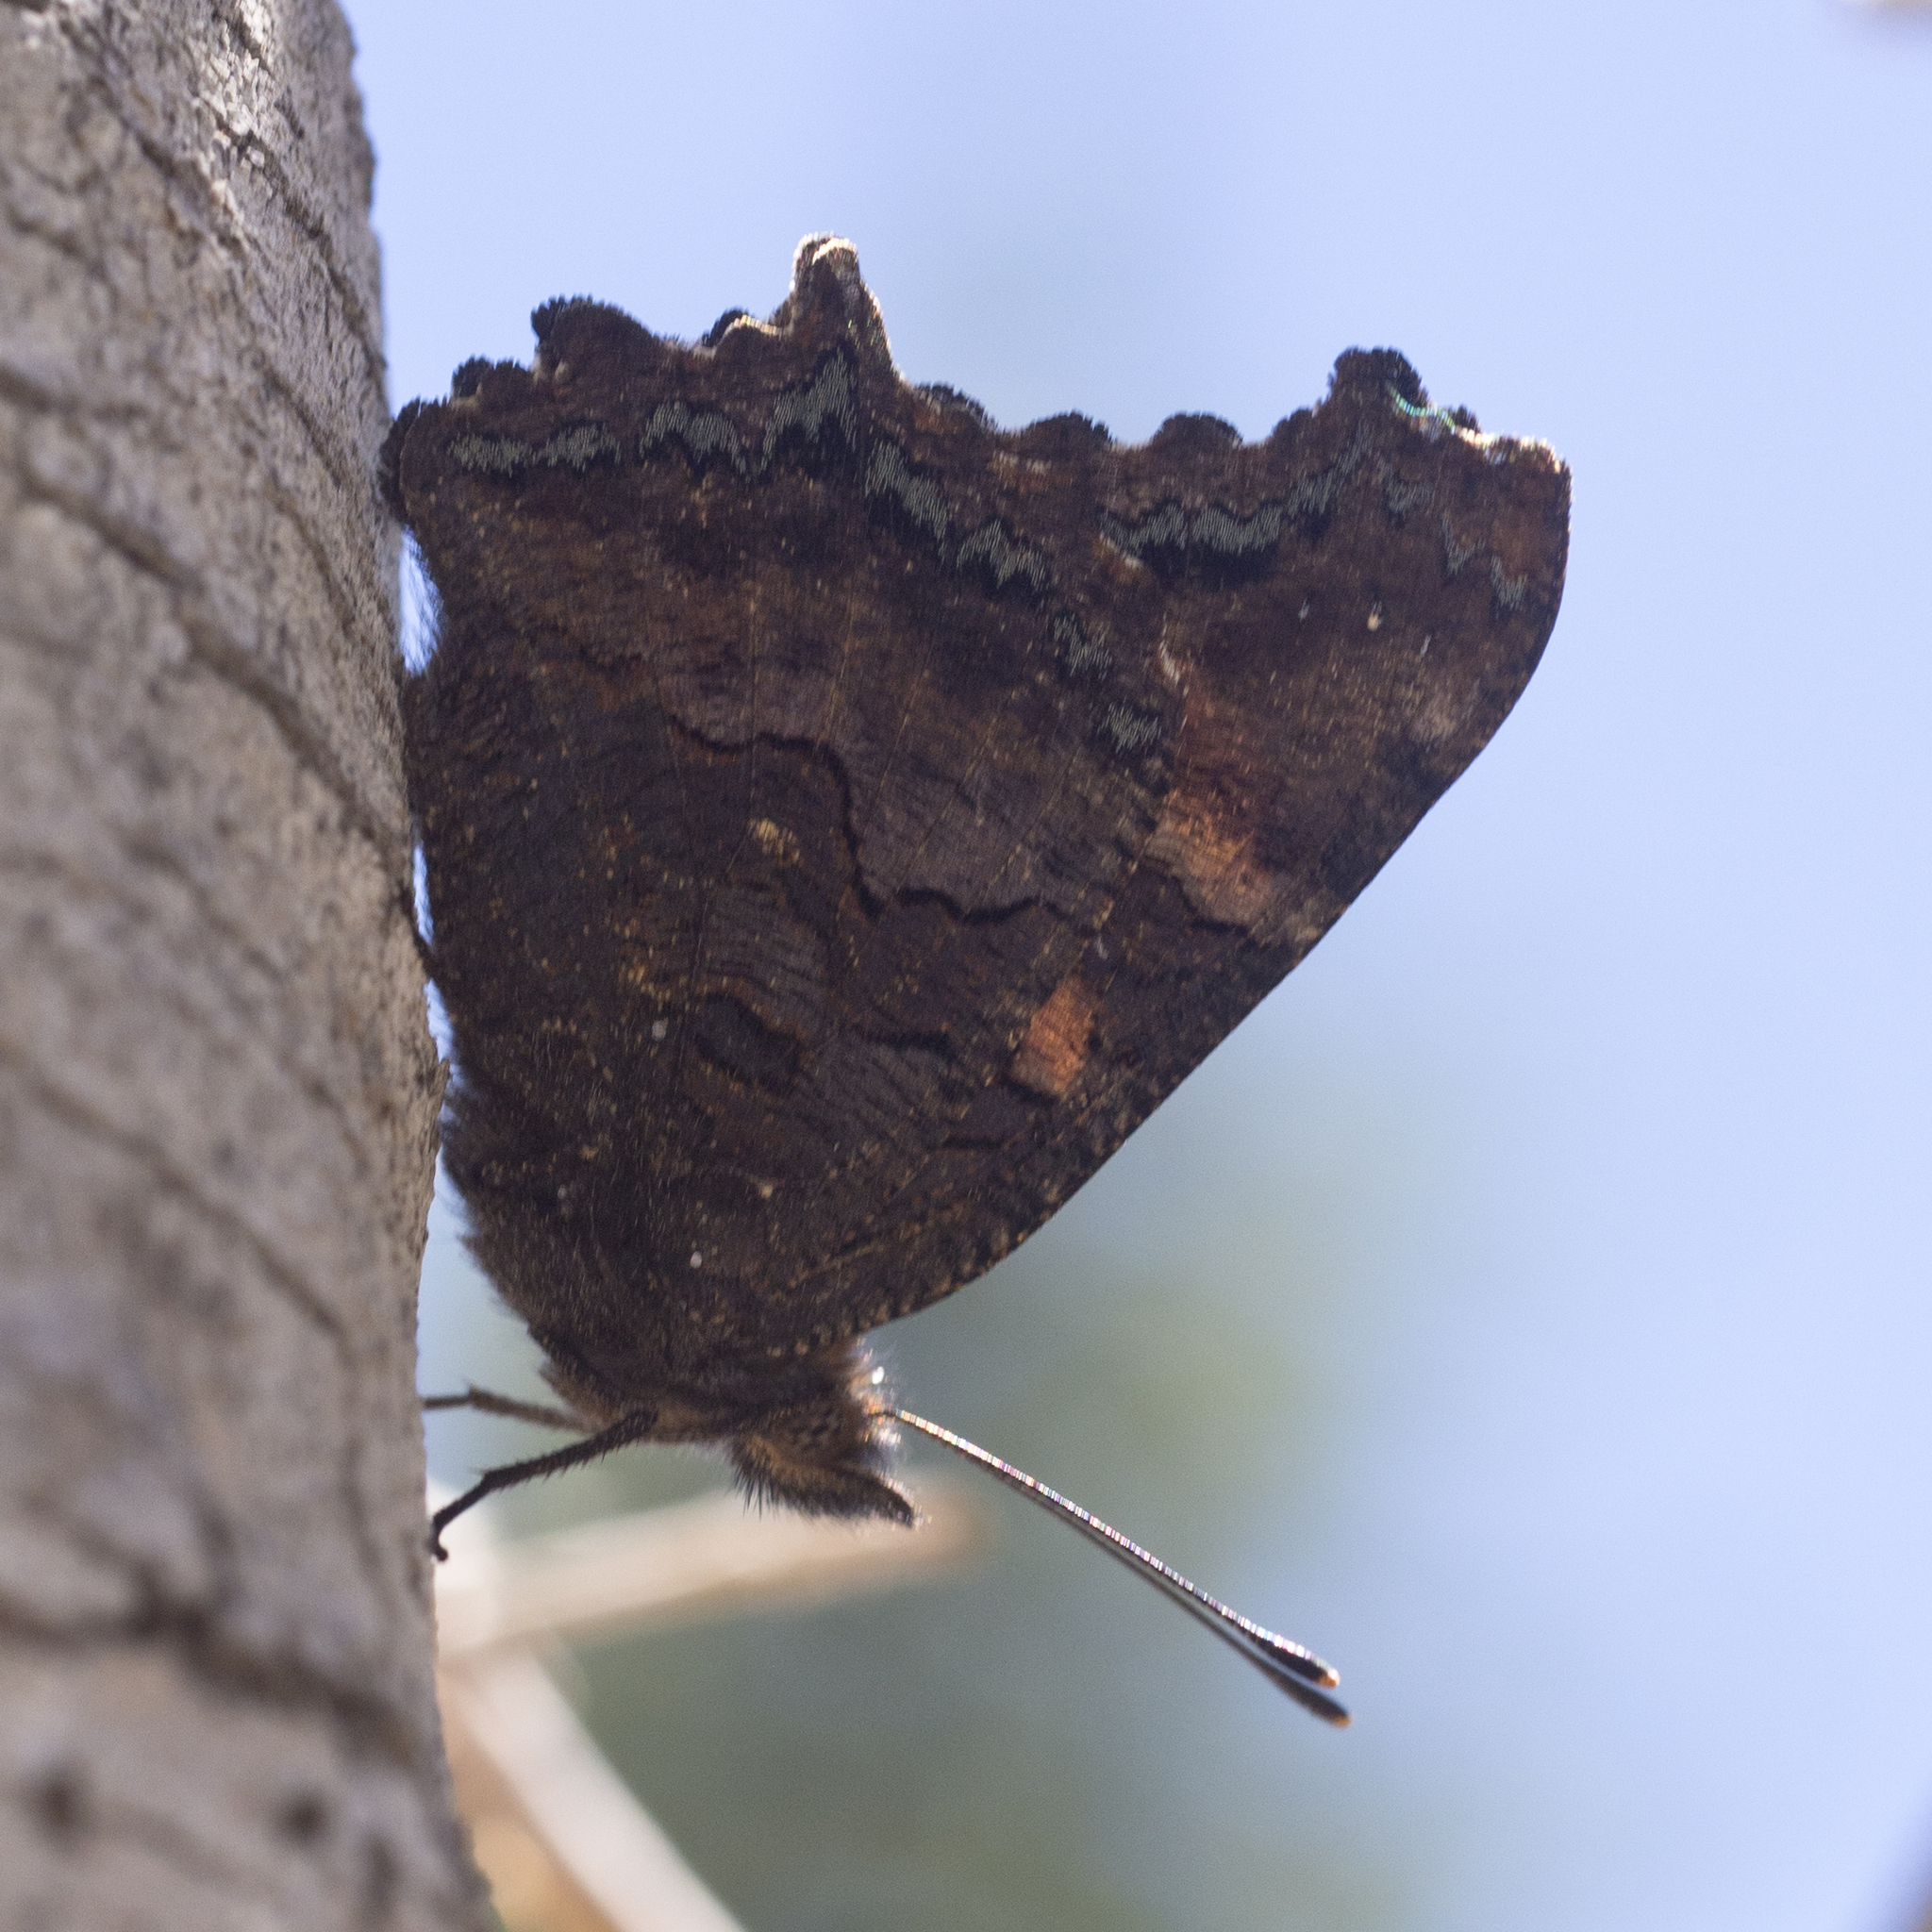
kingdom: Animalia
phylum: Arthropoda
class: Insecta
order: Lepidoptera
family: Nymphalidae
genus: Nymphalis
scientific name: Nymphalis californica
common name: California tortoiseshell
